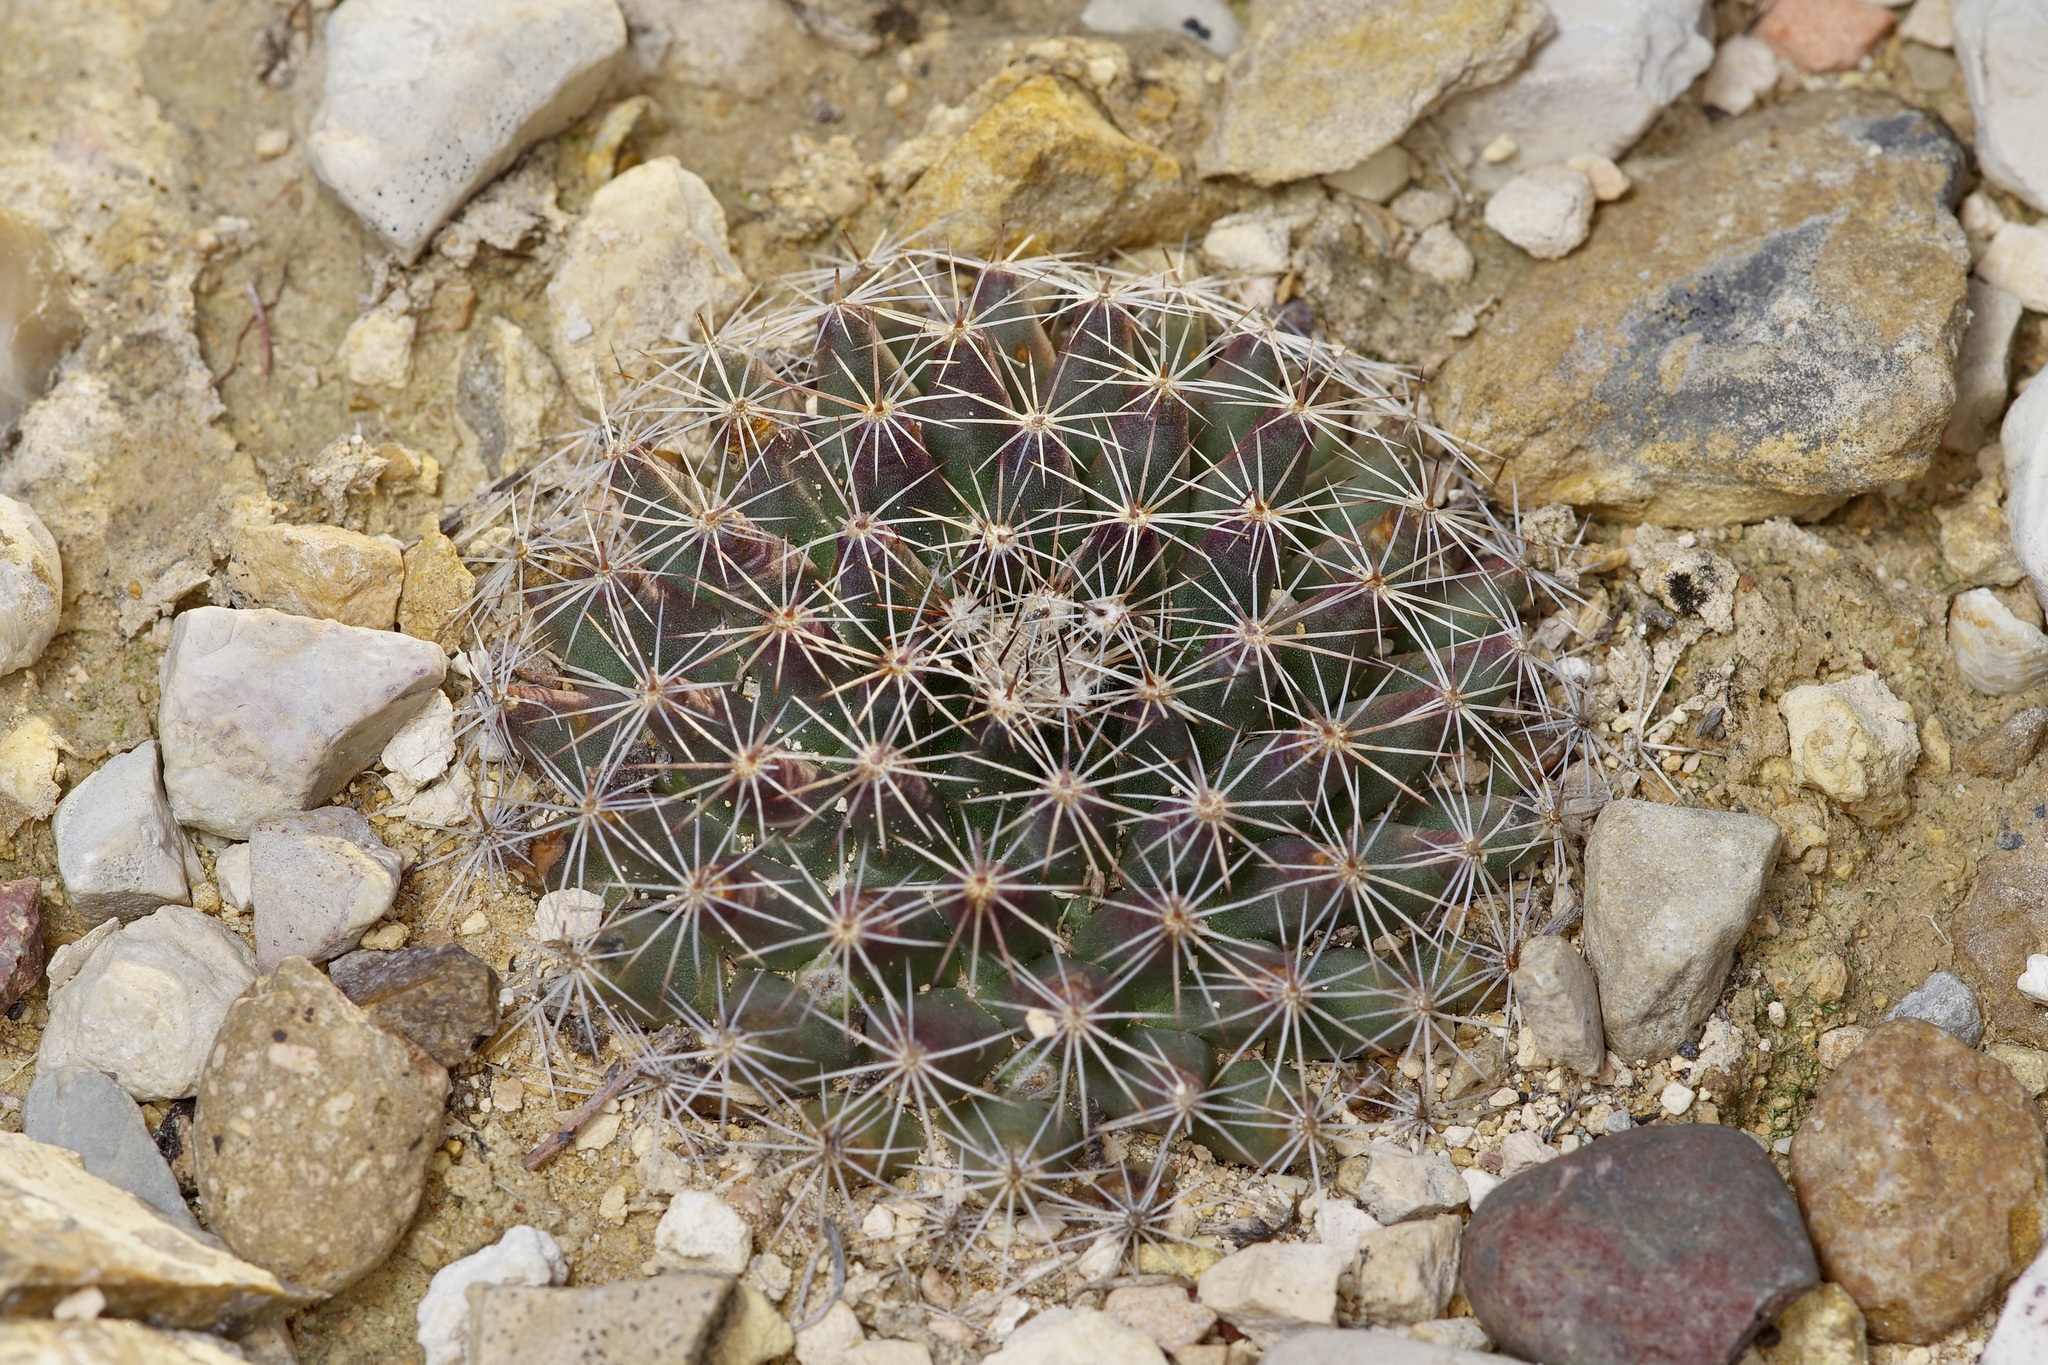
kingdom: Plantae
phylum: Tracheophyta
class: Magnoliopsida
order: Caryophyllales
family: Cactaceae
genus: Mammillaria
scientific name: Mammillaria heyderi
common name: Little nipple cactus
